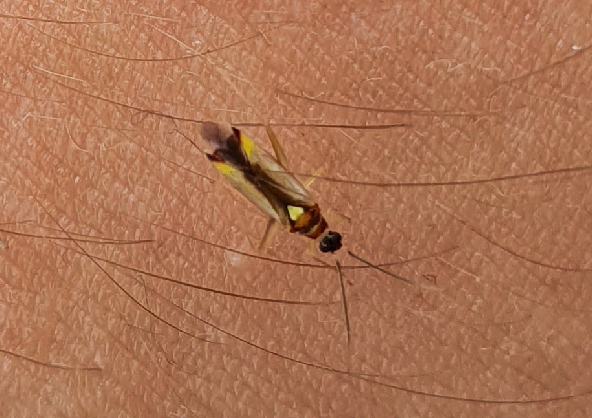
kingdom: Animalia
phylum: Arthropoda
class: Insecta
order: Hemiptera
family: Miridae
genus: Campyloneura
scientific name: Campyloneura virgula
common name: Predatory bug
